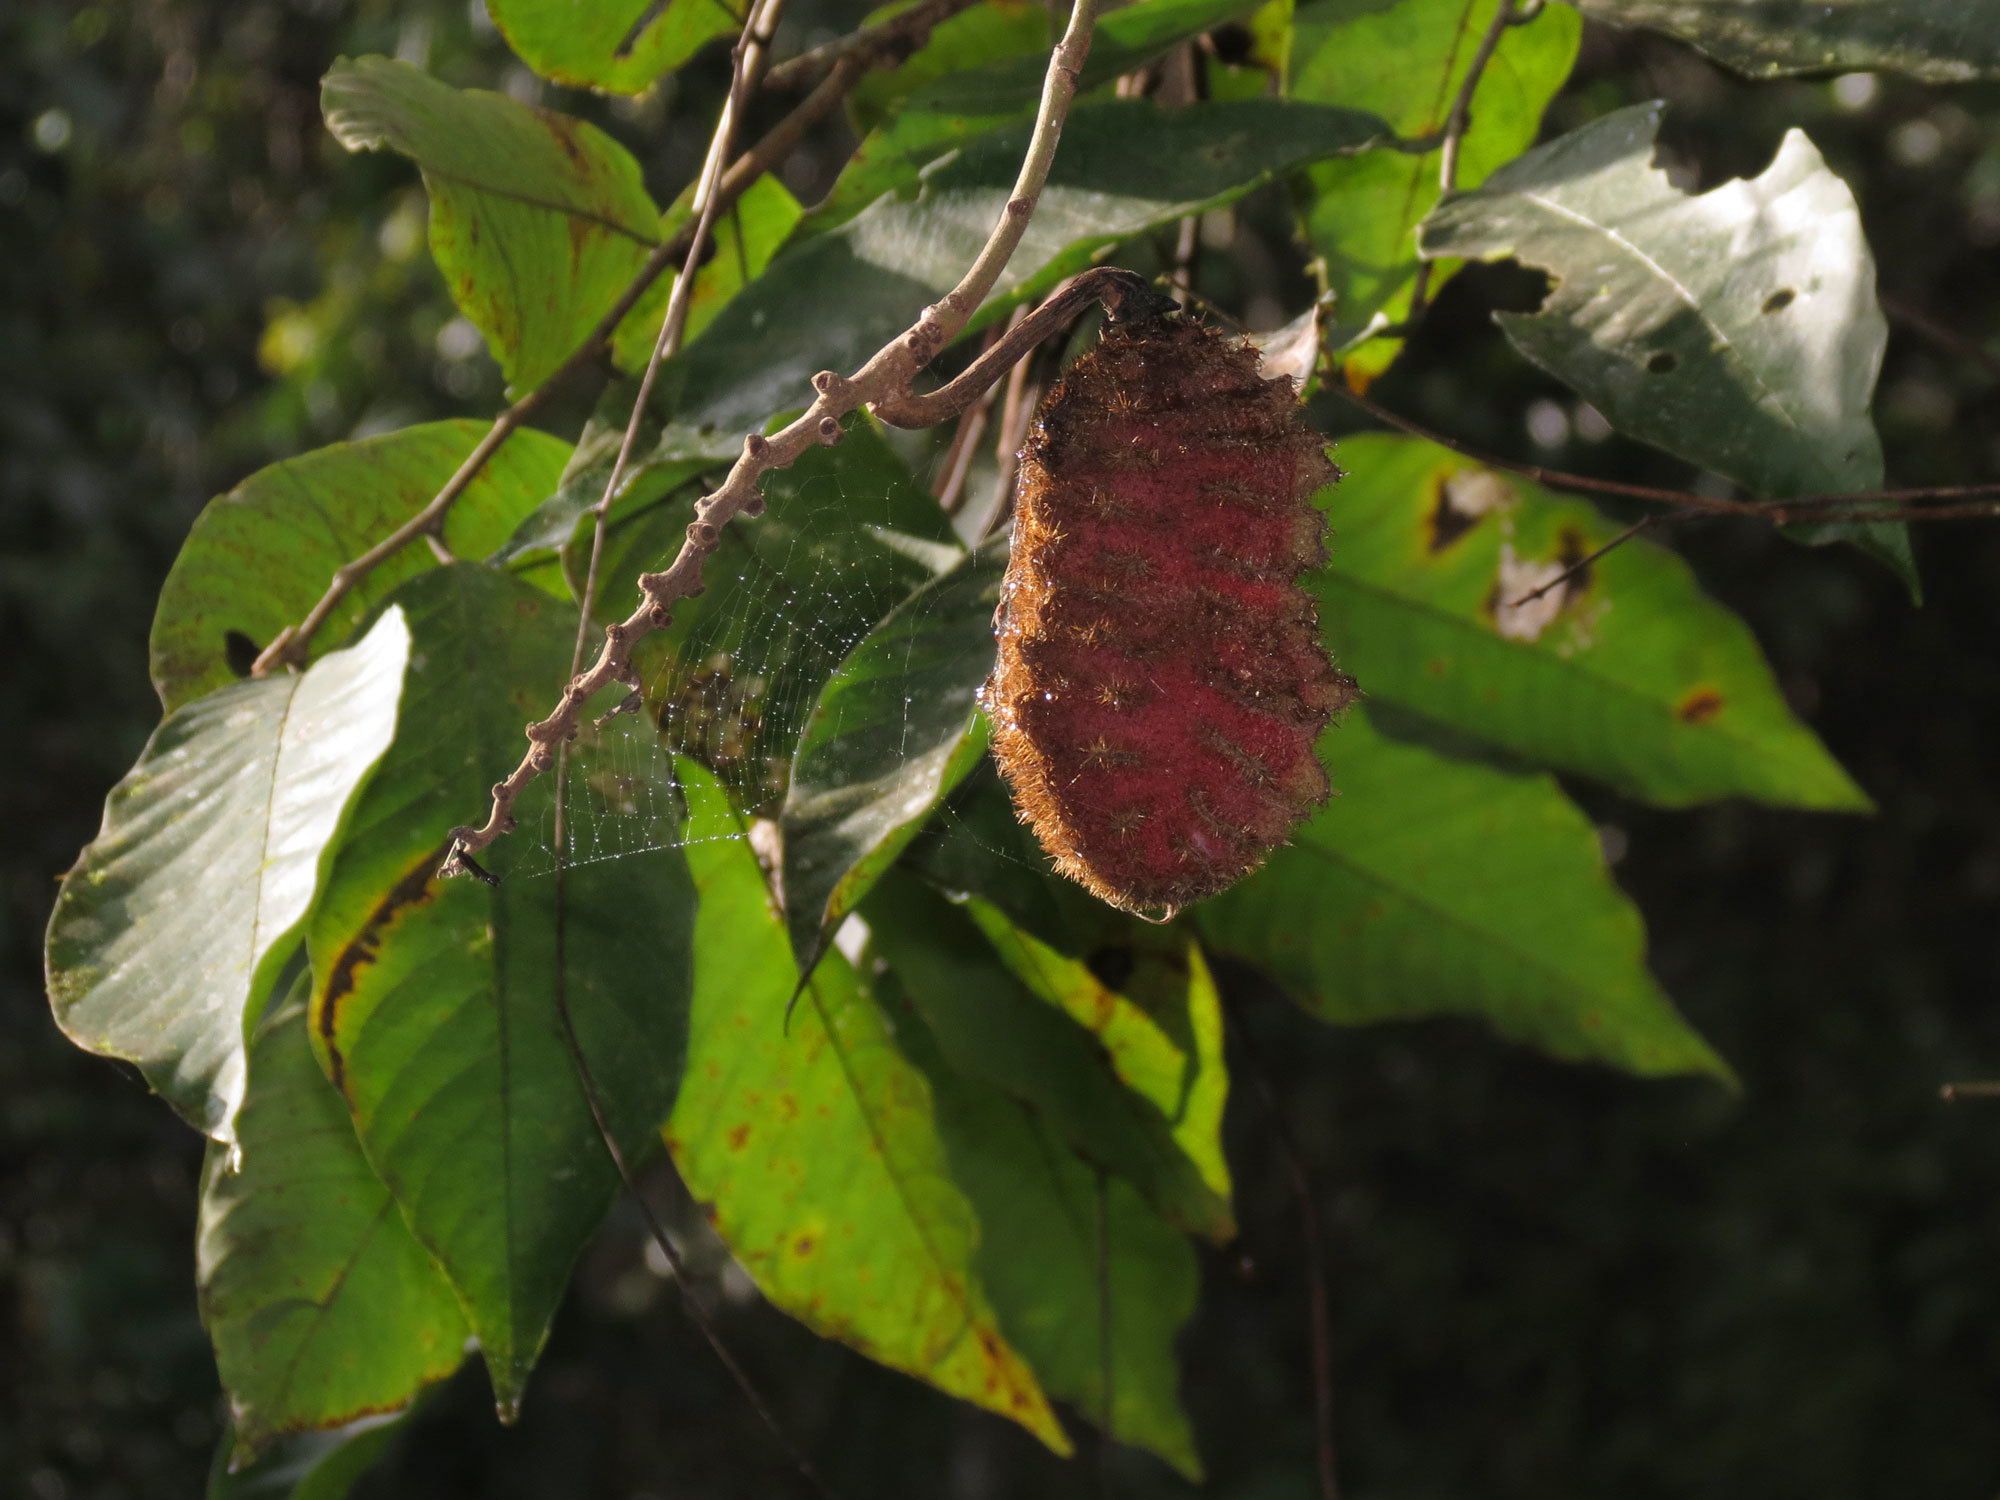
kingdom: Plantae
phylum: Tracheophyta
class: Magnoliopsida
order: Fabales
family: Fabaceae
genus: Mucuna
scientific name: Mucuna mutisiana
